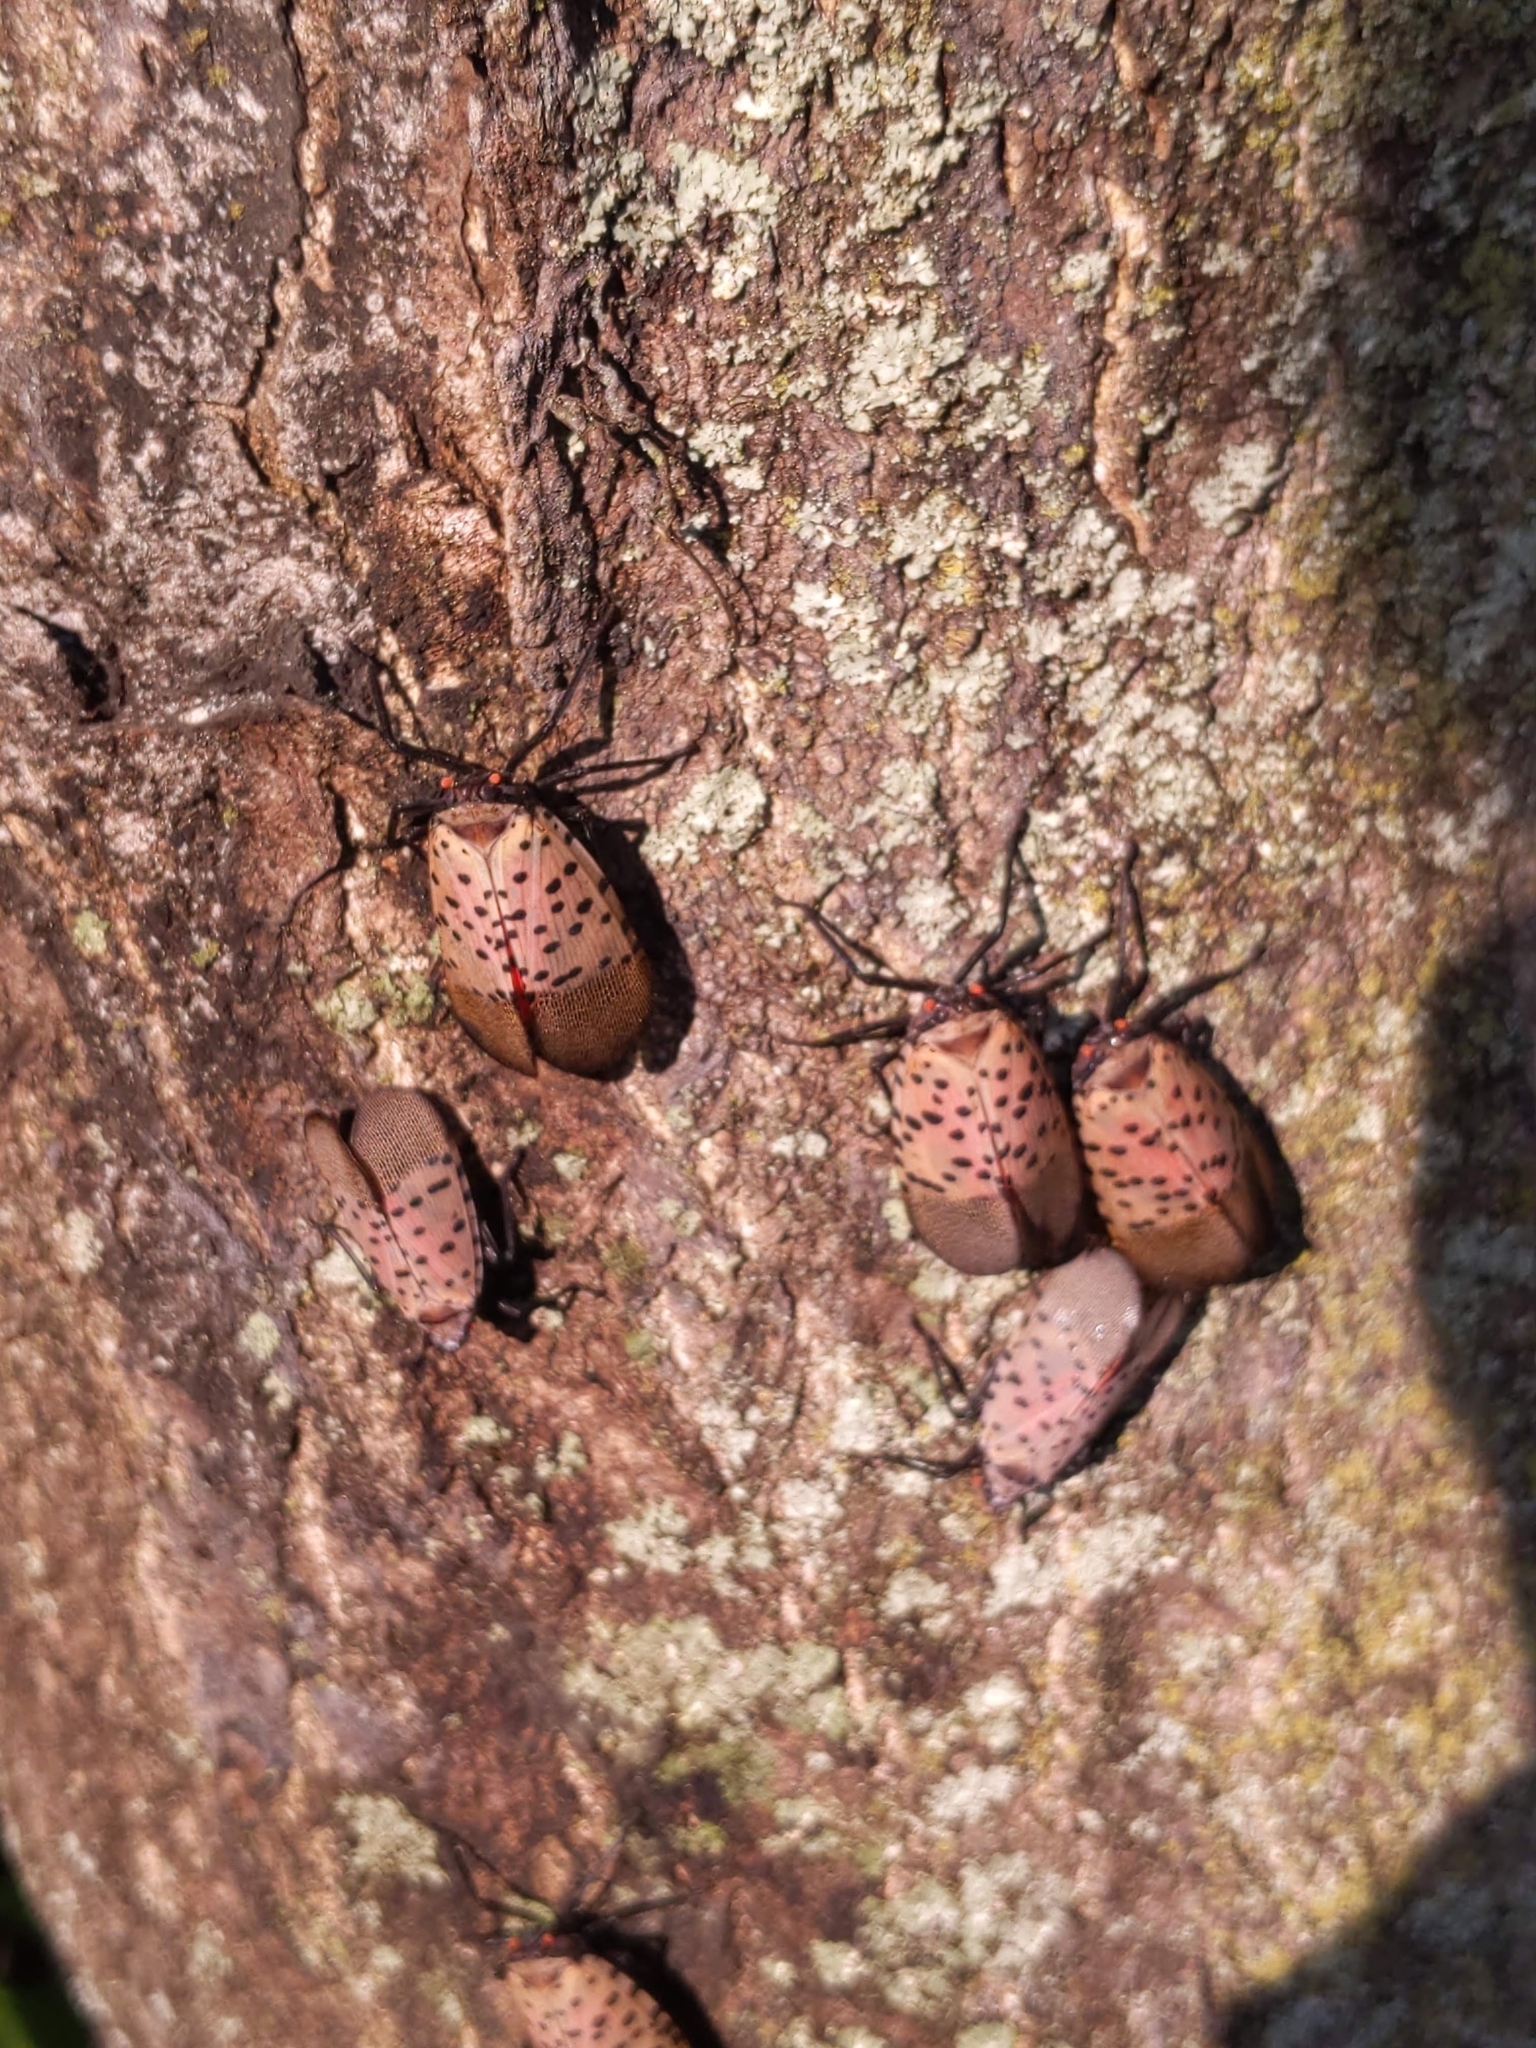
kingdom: Animalia
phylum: Arthropoda
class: Insecta
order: Hemiptera
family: Fulgoridae
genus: Lycorma
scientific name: Lycorma delicatula
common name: Spotted lanternfly
